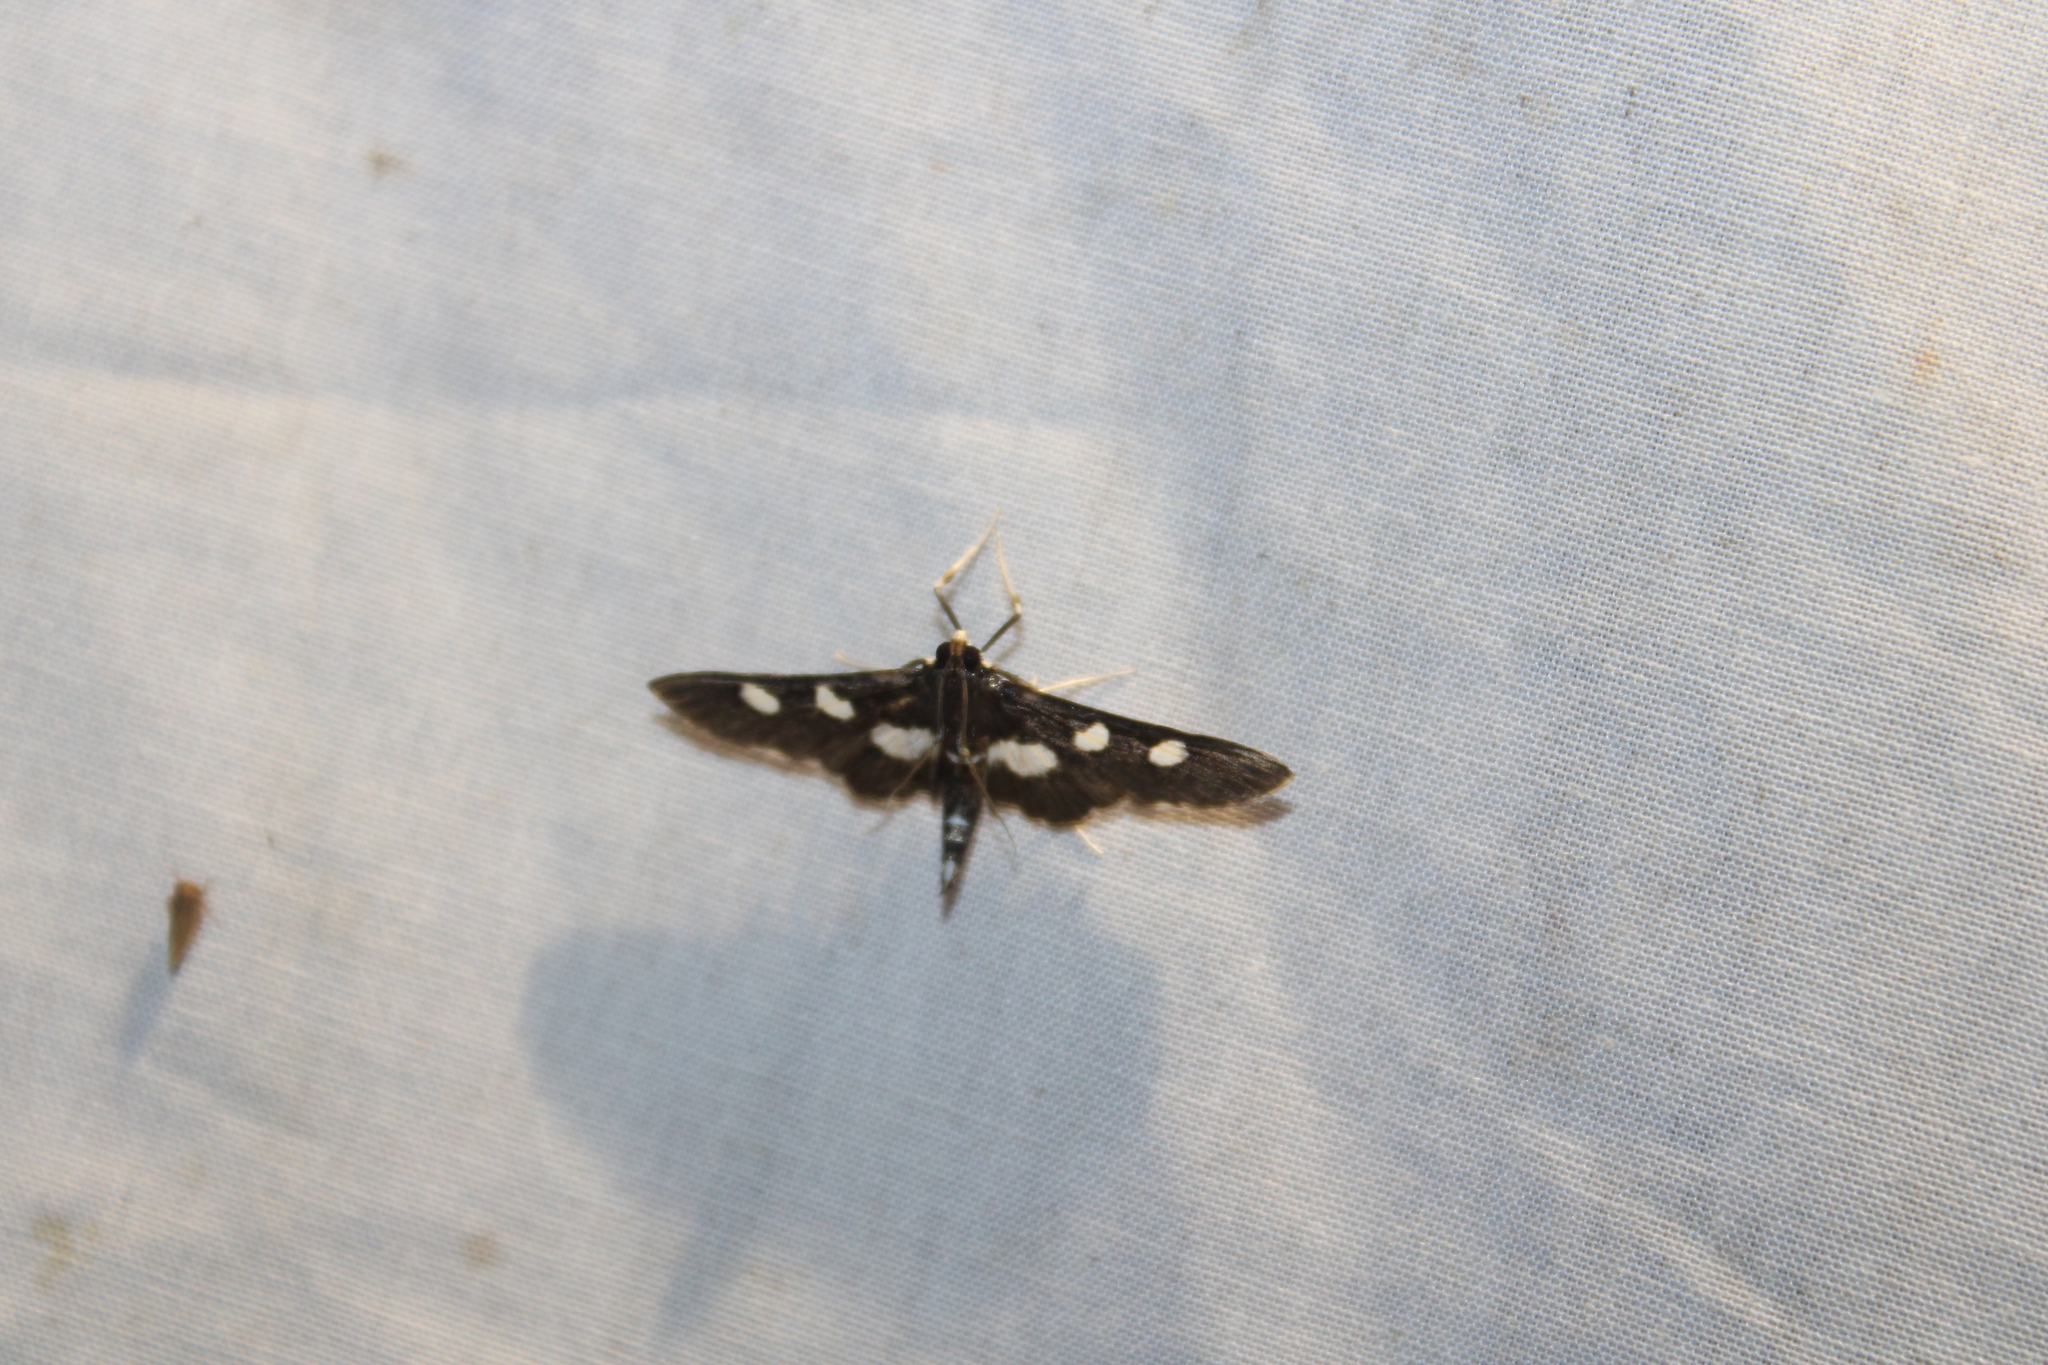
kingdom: Animalia
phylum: Arthropoda
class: Insecta
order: Lepidoptera
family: Crambidae
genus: Desmia
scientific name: Desmia funeralis
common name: Grape leaf folder moth
